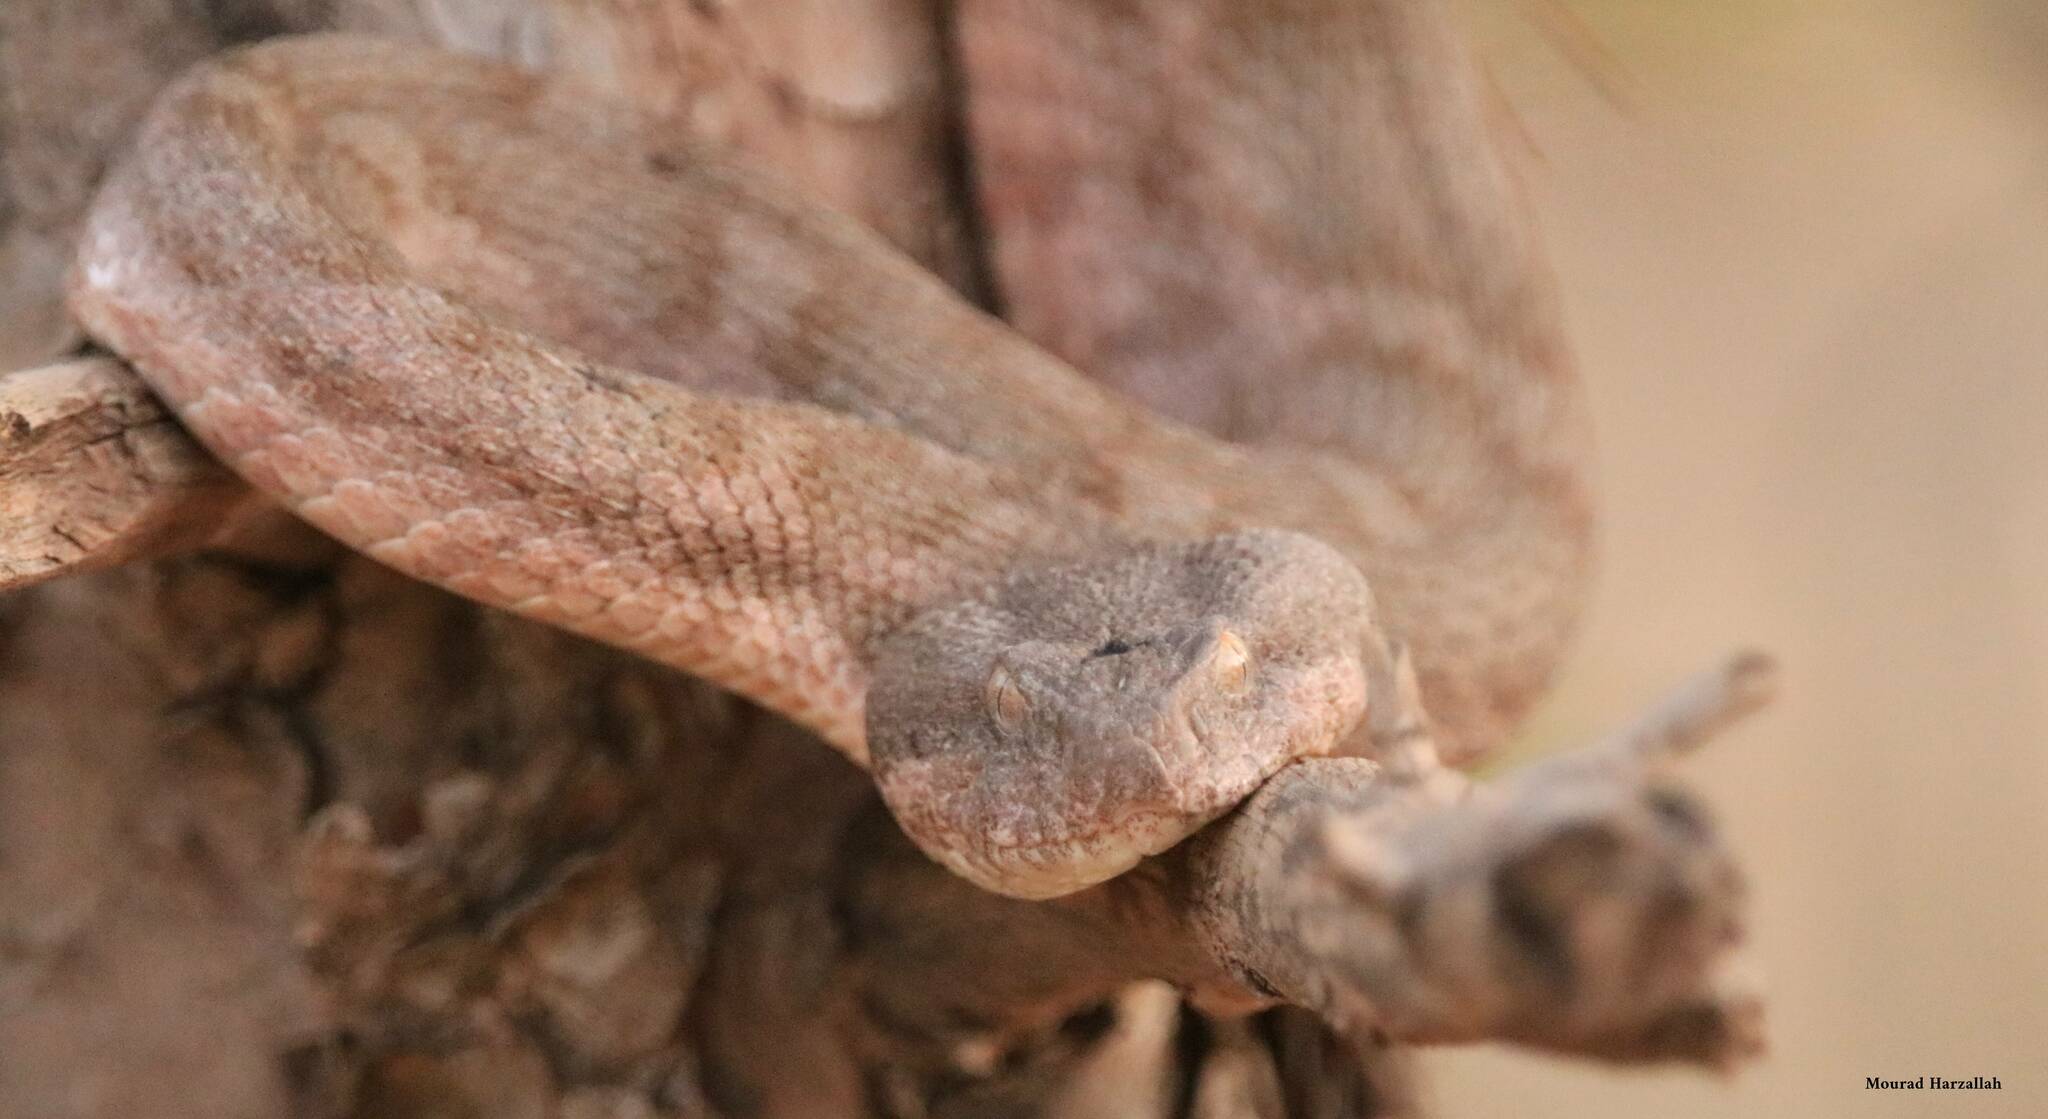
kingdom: Animalia
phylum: Chordata
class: Squamata
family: Viperidae
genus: Daboia
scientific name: Daboia mauritanica
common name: Moorish viper
